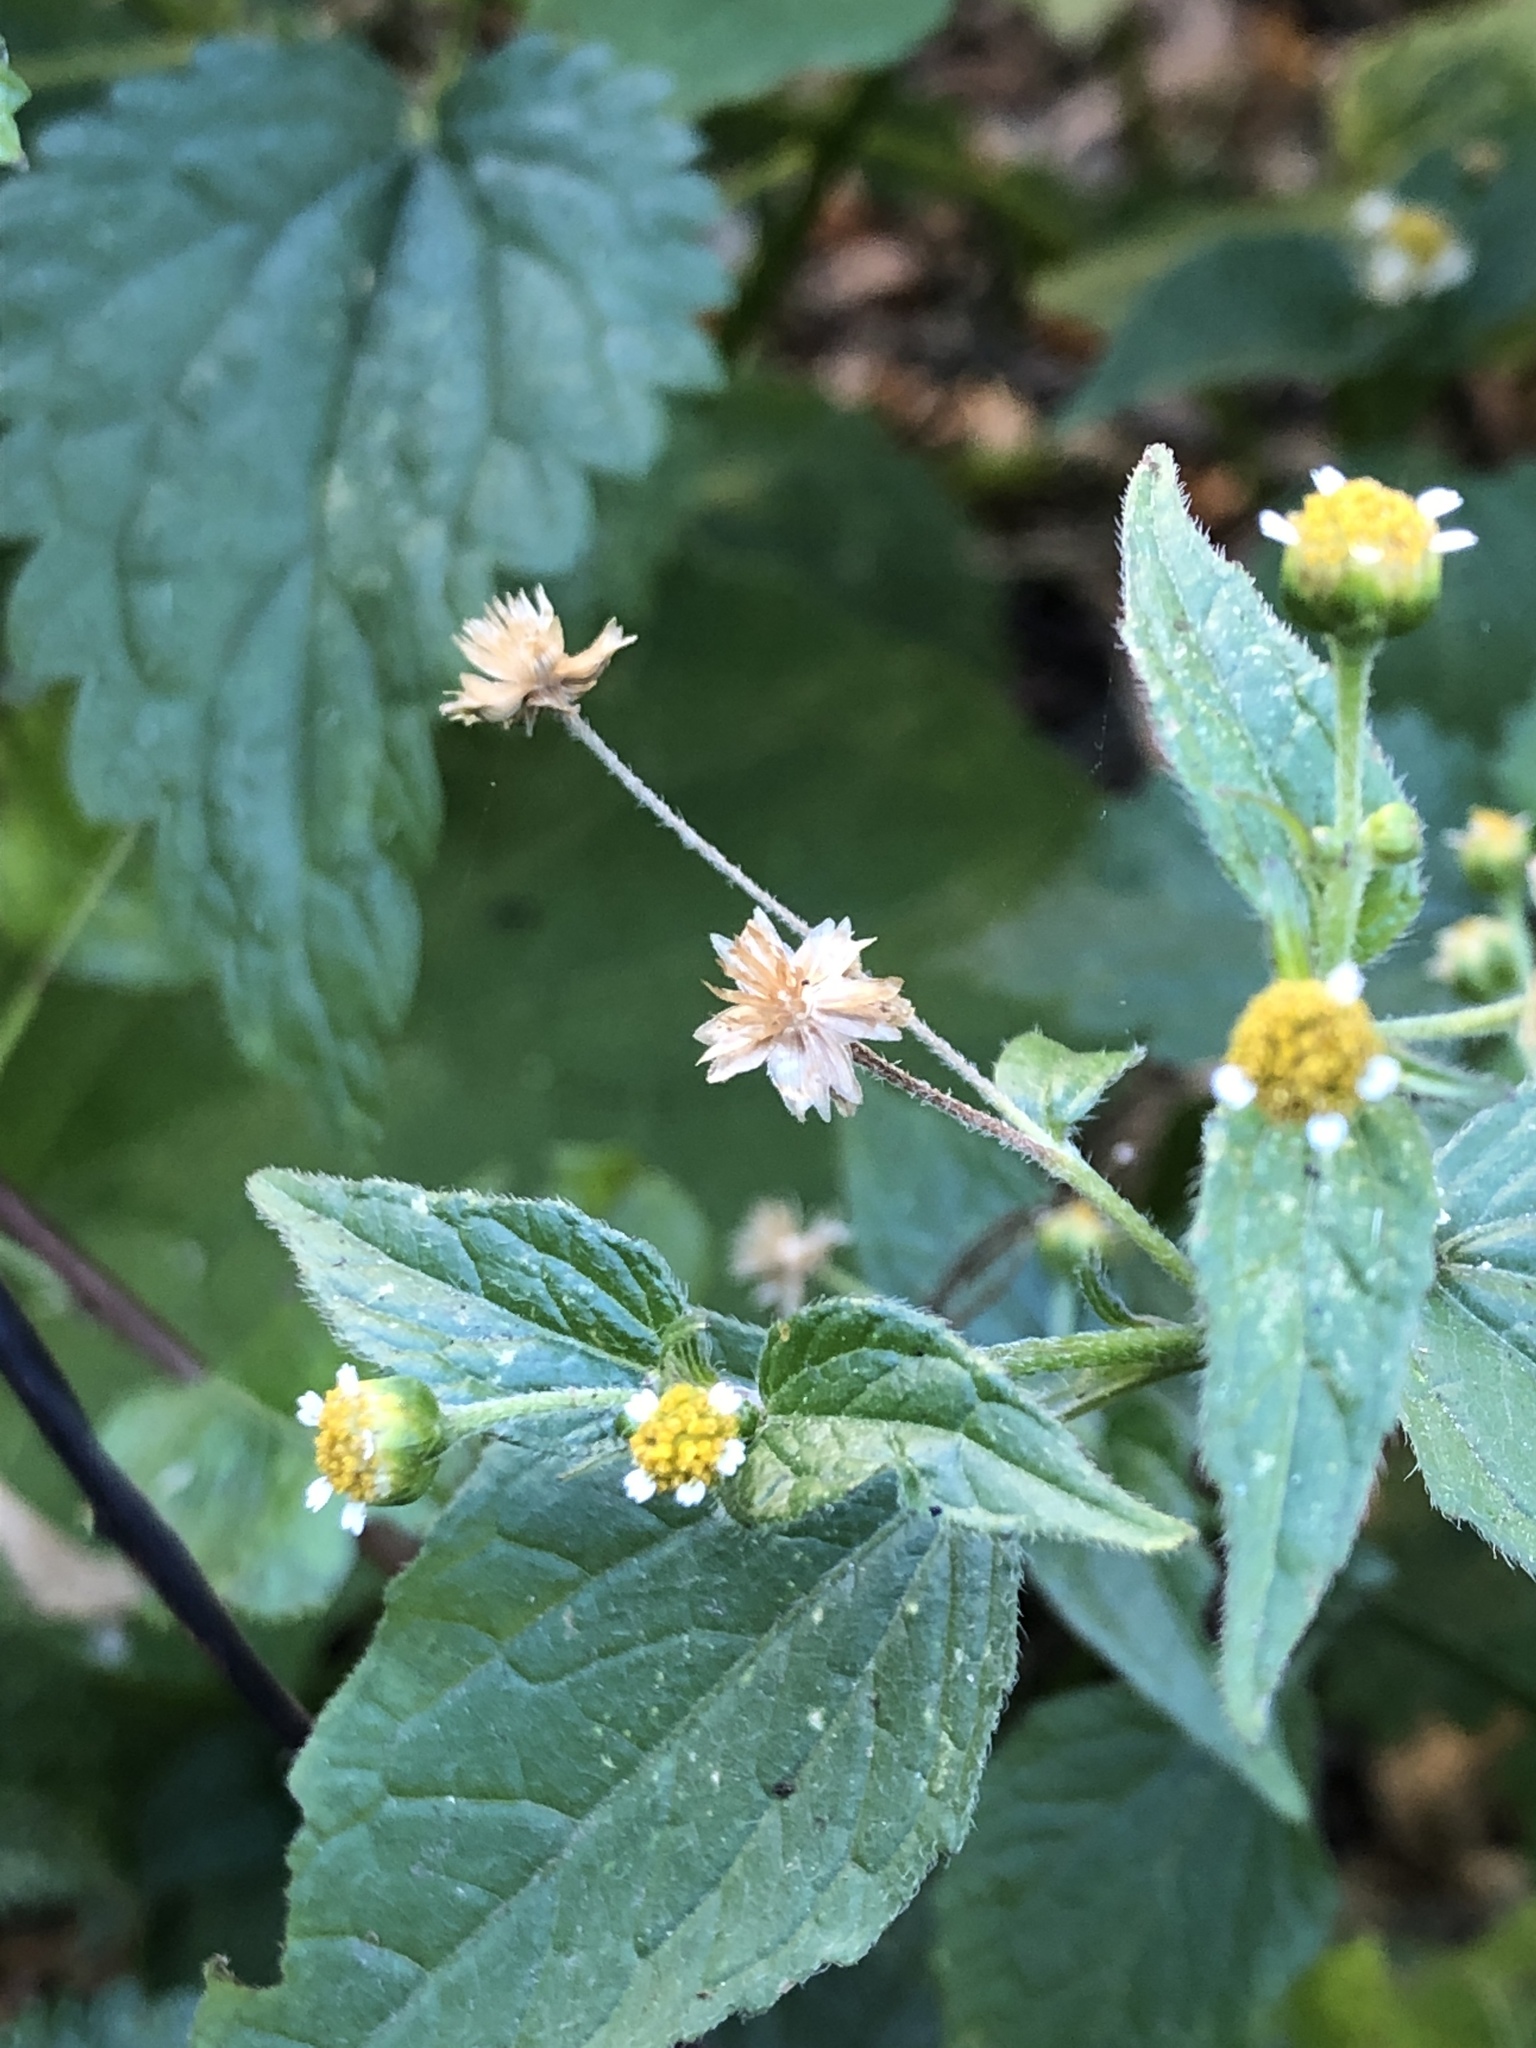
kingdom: Plantae
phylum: Tracheophyta
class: Magnoliopsida
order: Asterales
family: Asteraceae
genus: Galinsoga
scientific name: Galinsoga parviflora
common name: Gallant soldier
